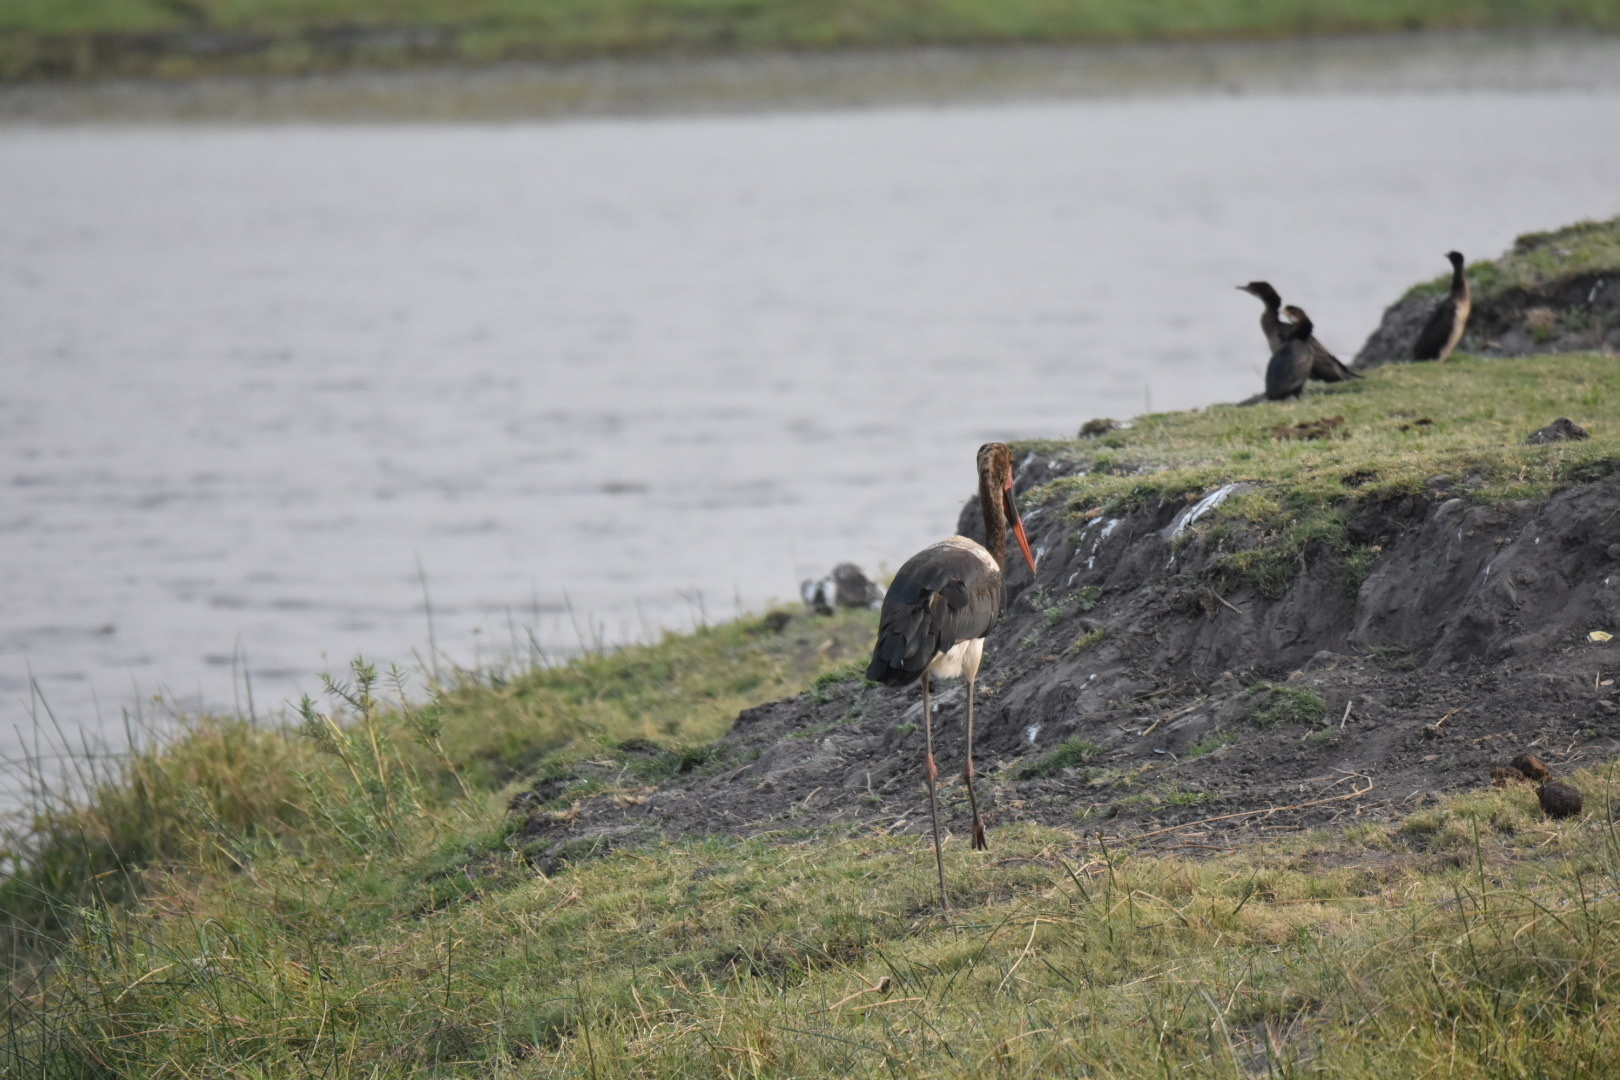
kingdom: Animalia
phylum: Chordata
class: Aves
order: Ciconiiformes
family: Ciconiidae
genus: Ephippiorhynchus
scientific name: Ephippiorhynchus senegalensis
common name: Saddle-billed stork
